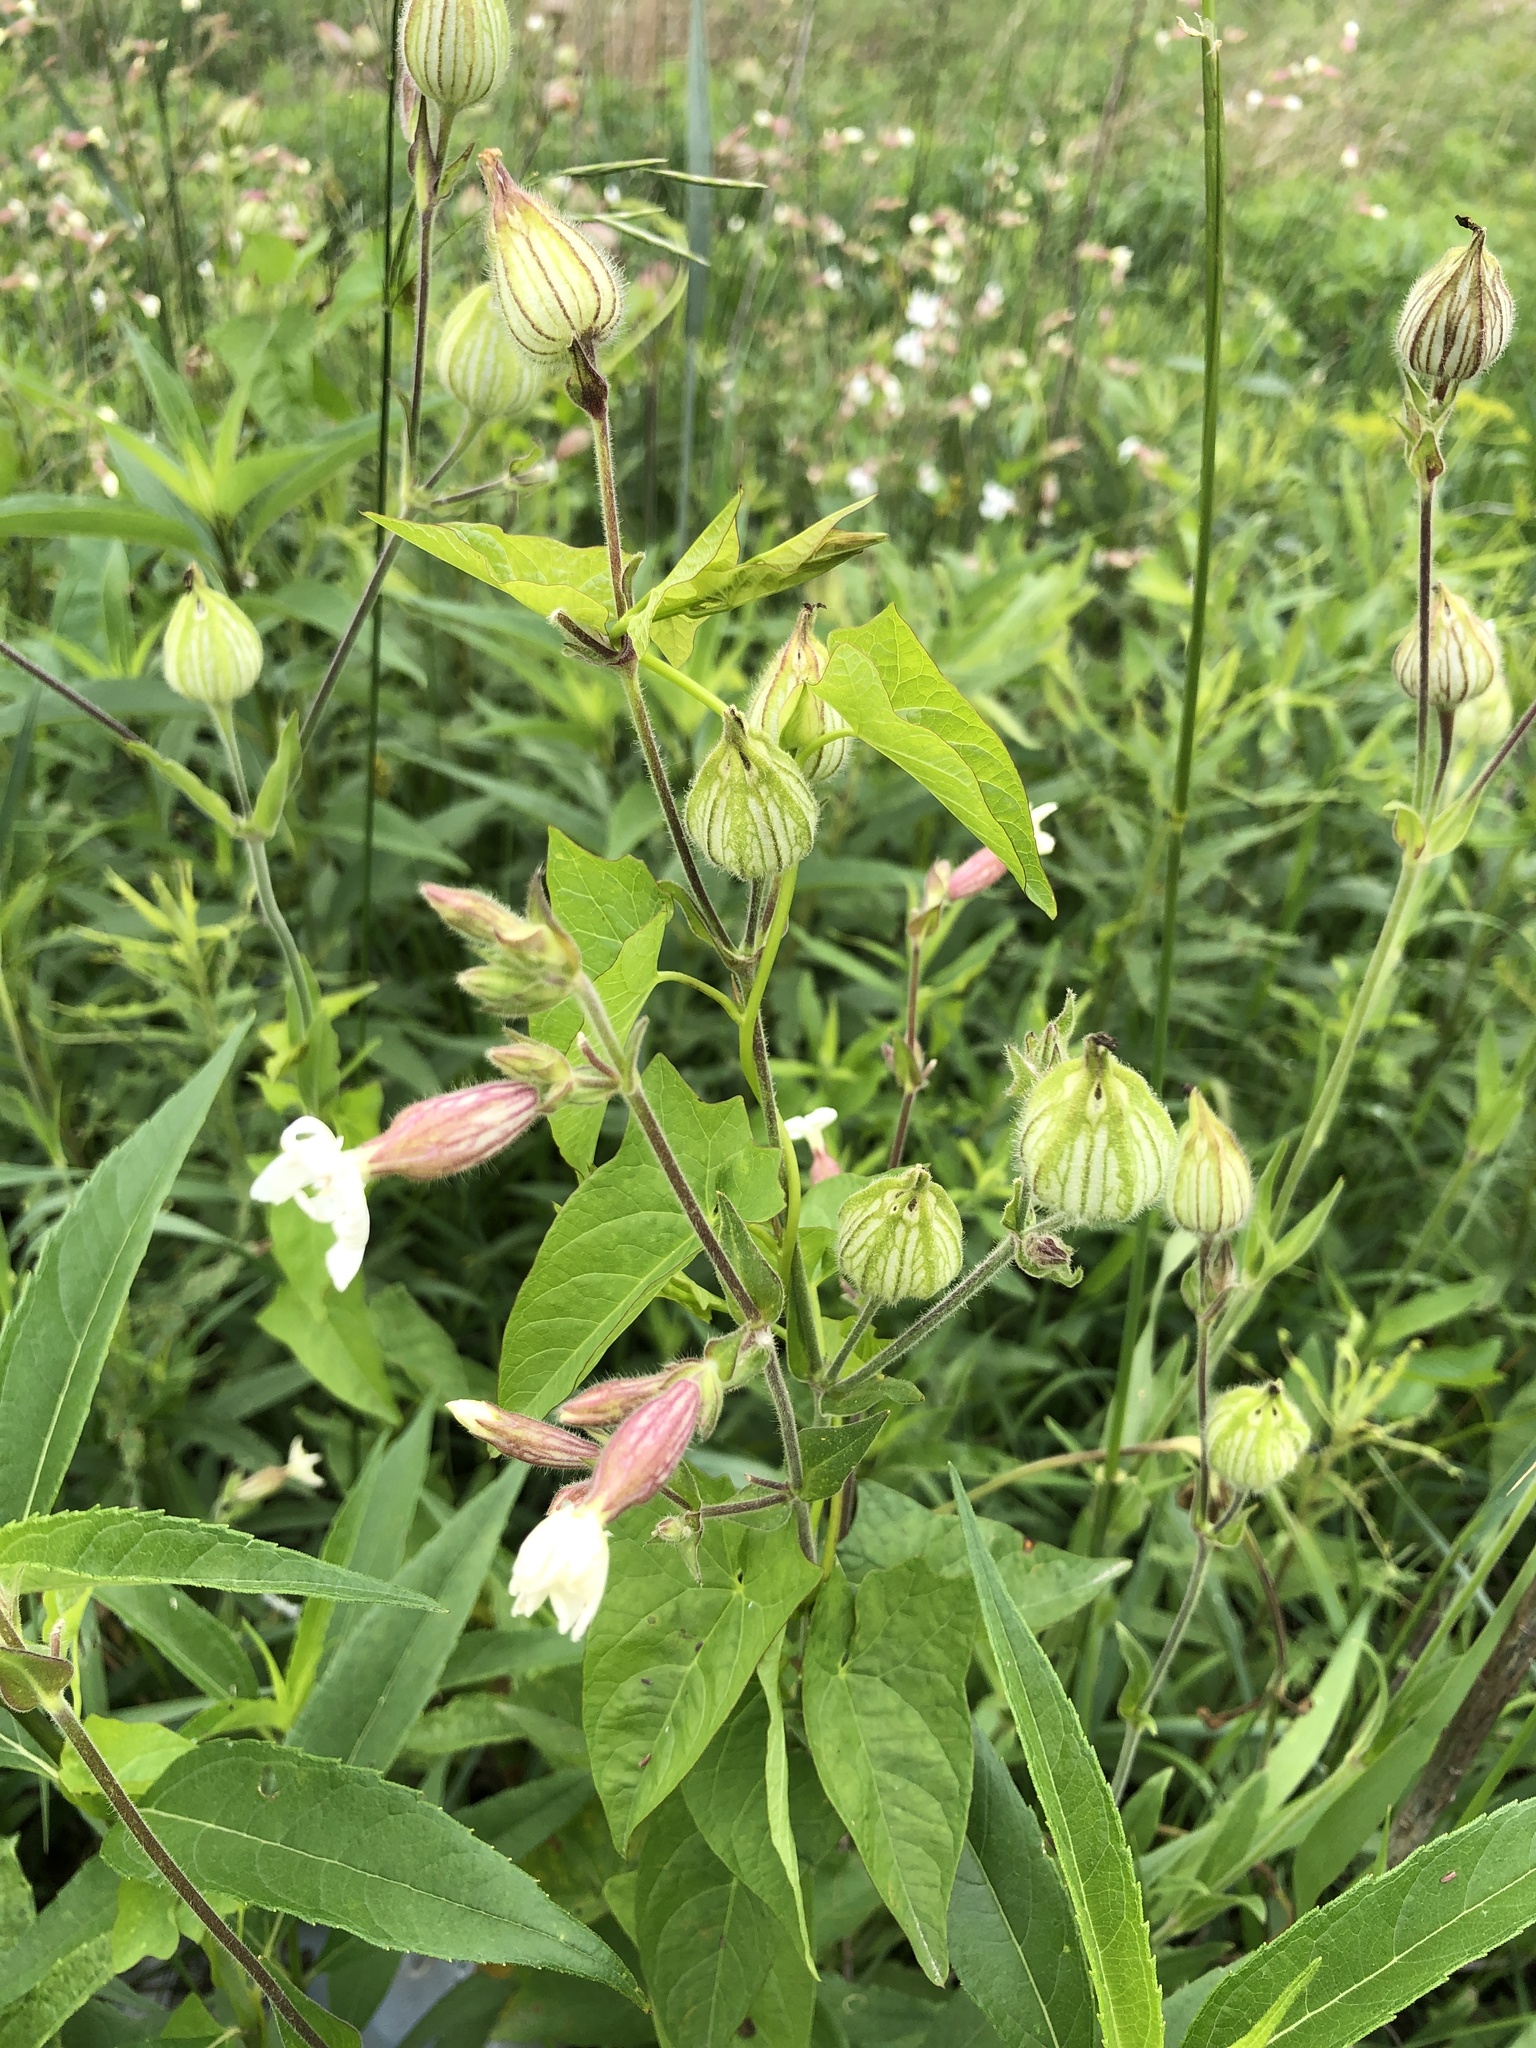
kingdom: Plantae
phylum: Tracheophyta
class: Magnoliopsida
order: Caryophyllales
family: Caryophyllaceae
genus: Silene
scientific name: Silene latifolia
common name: White campion
